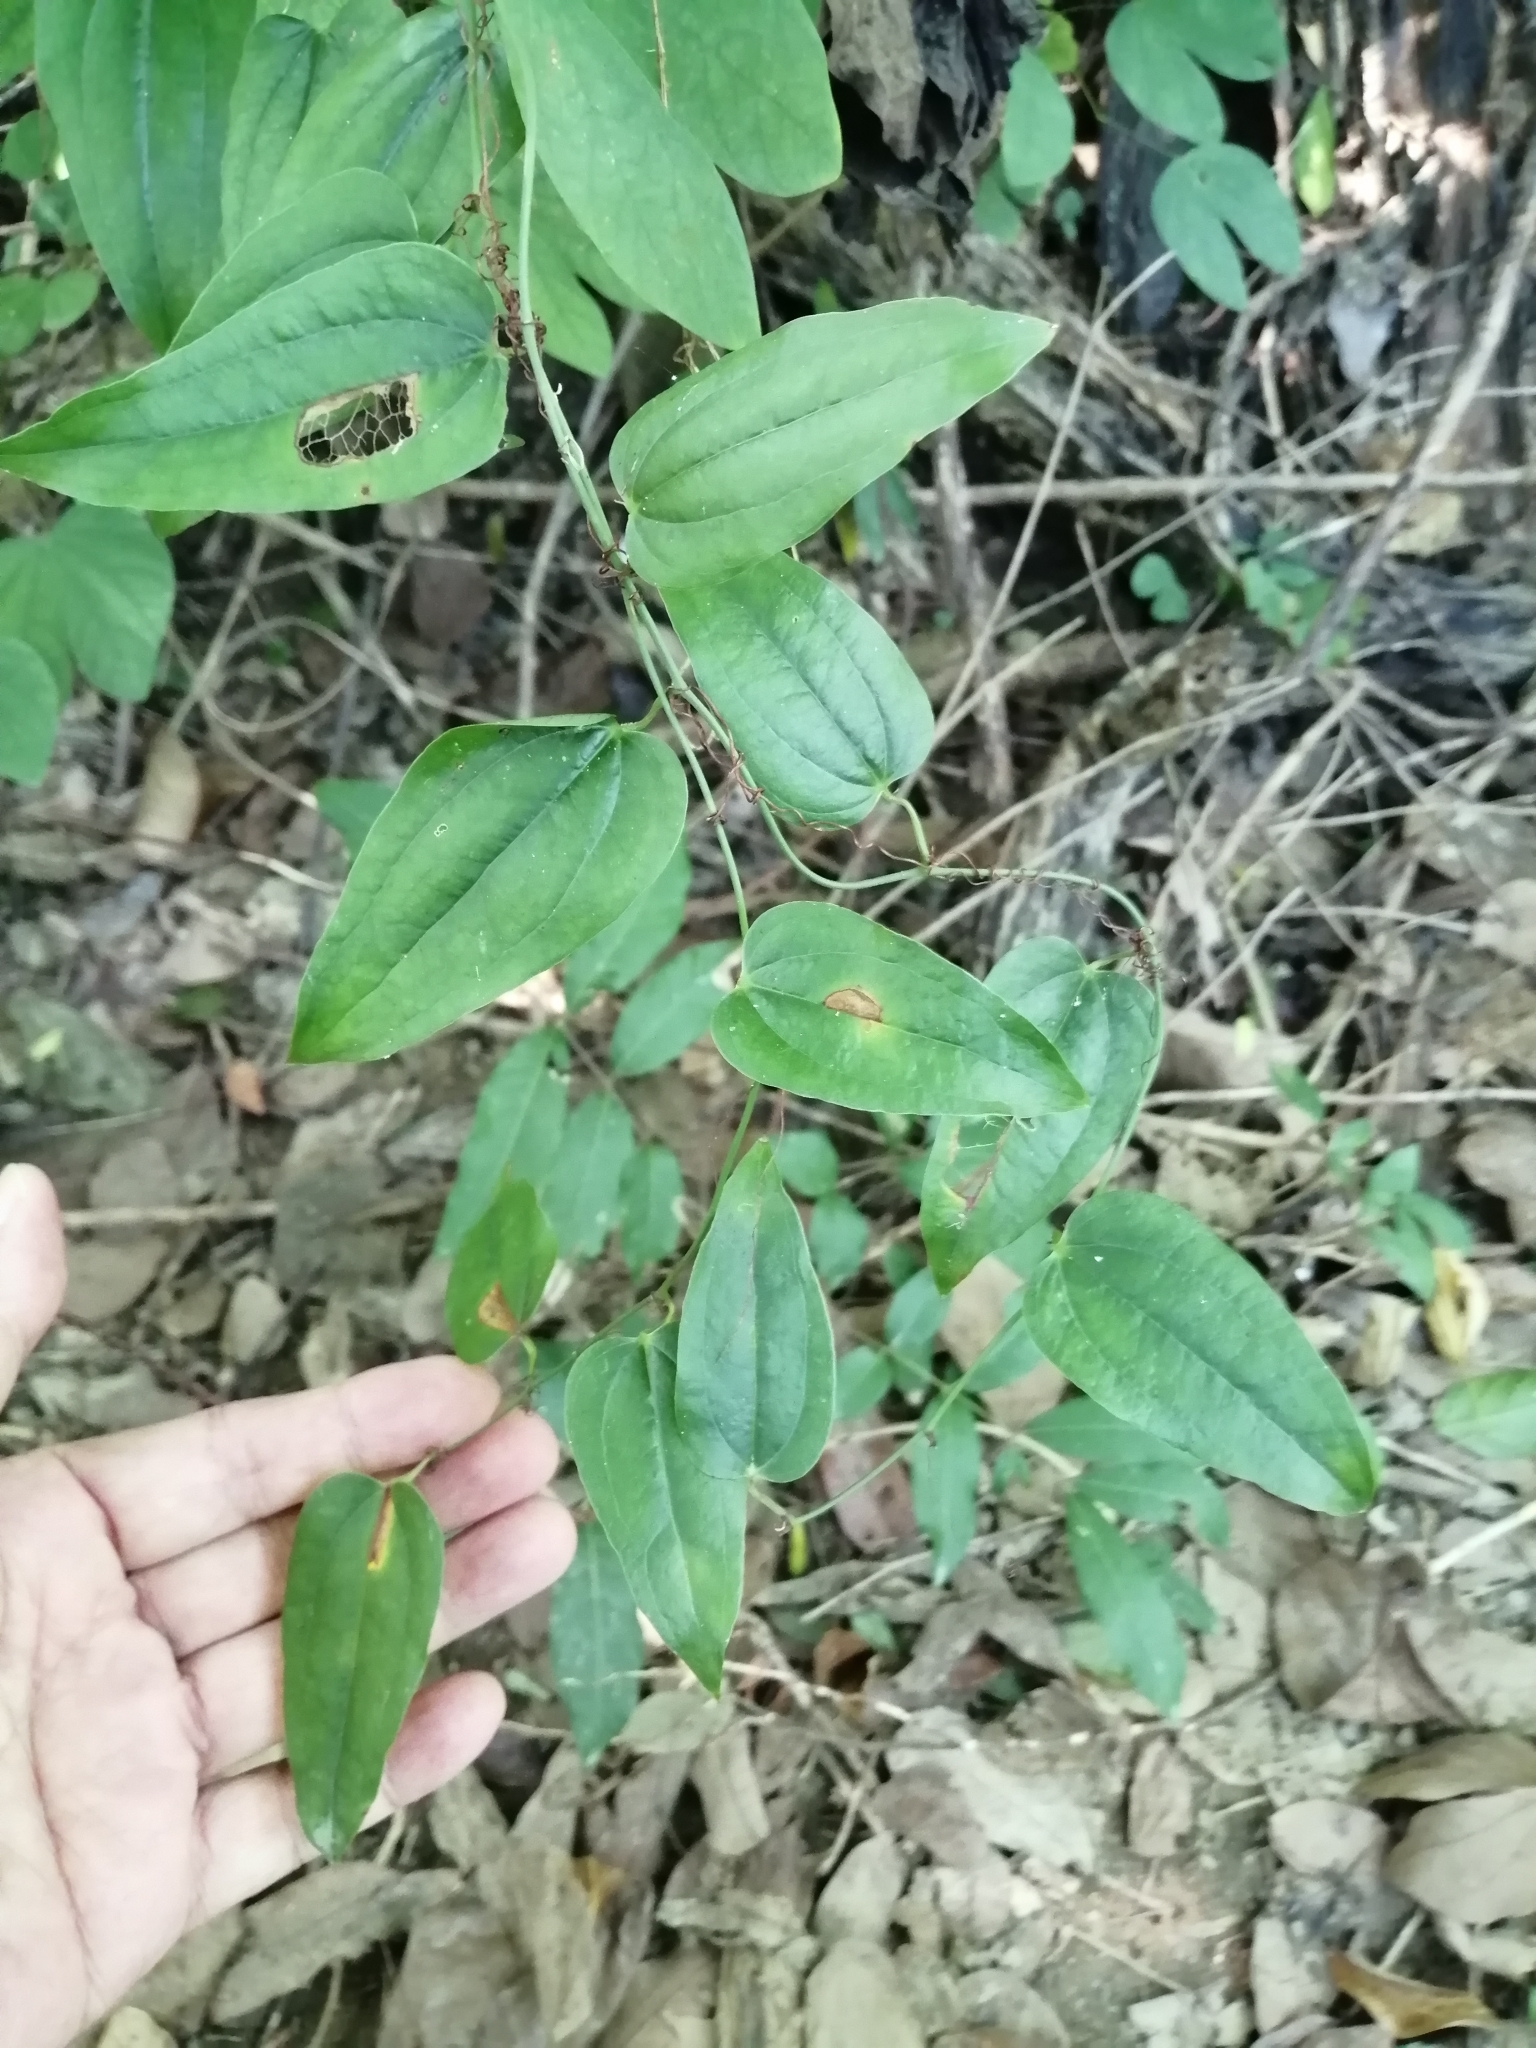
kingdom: Plantae
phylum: Tracheophyta
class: Liliopsida
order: Liliales
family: Smilacaceae
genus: Smilax
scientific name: Smilax bracteata
